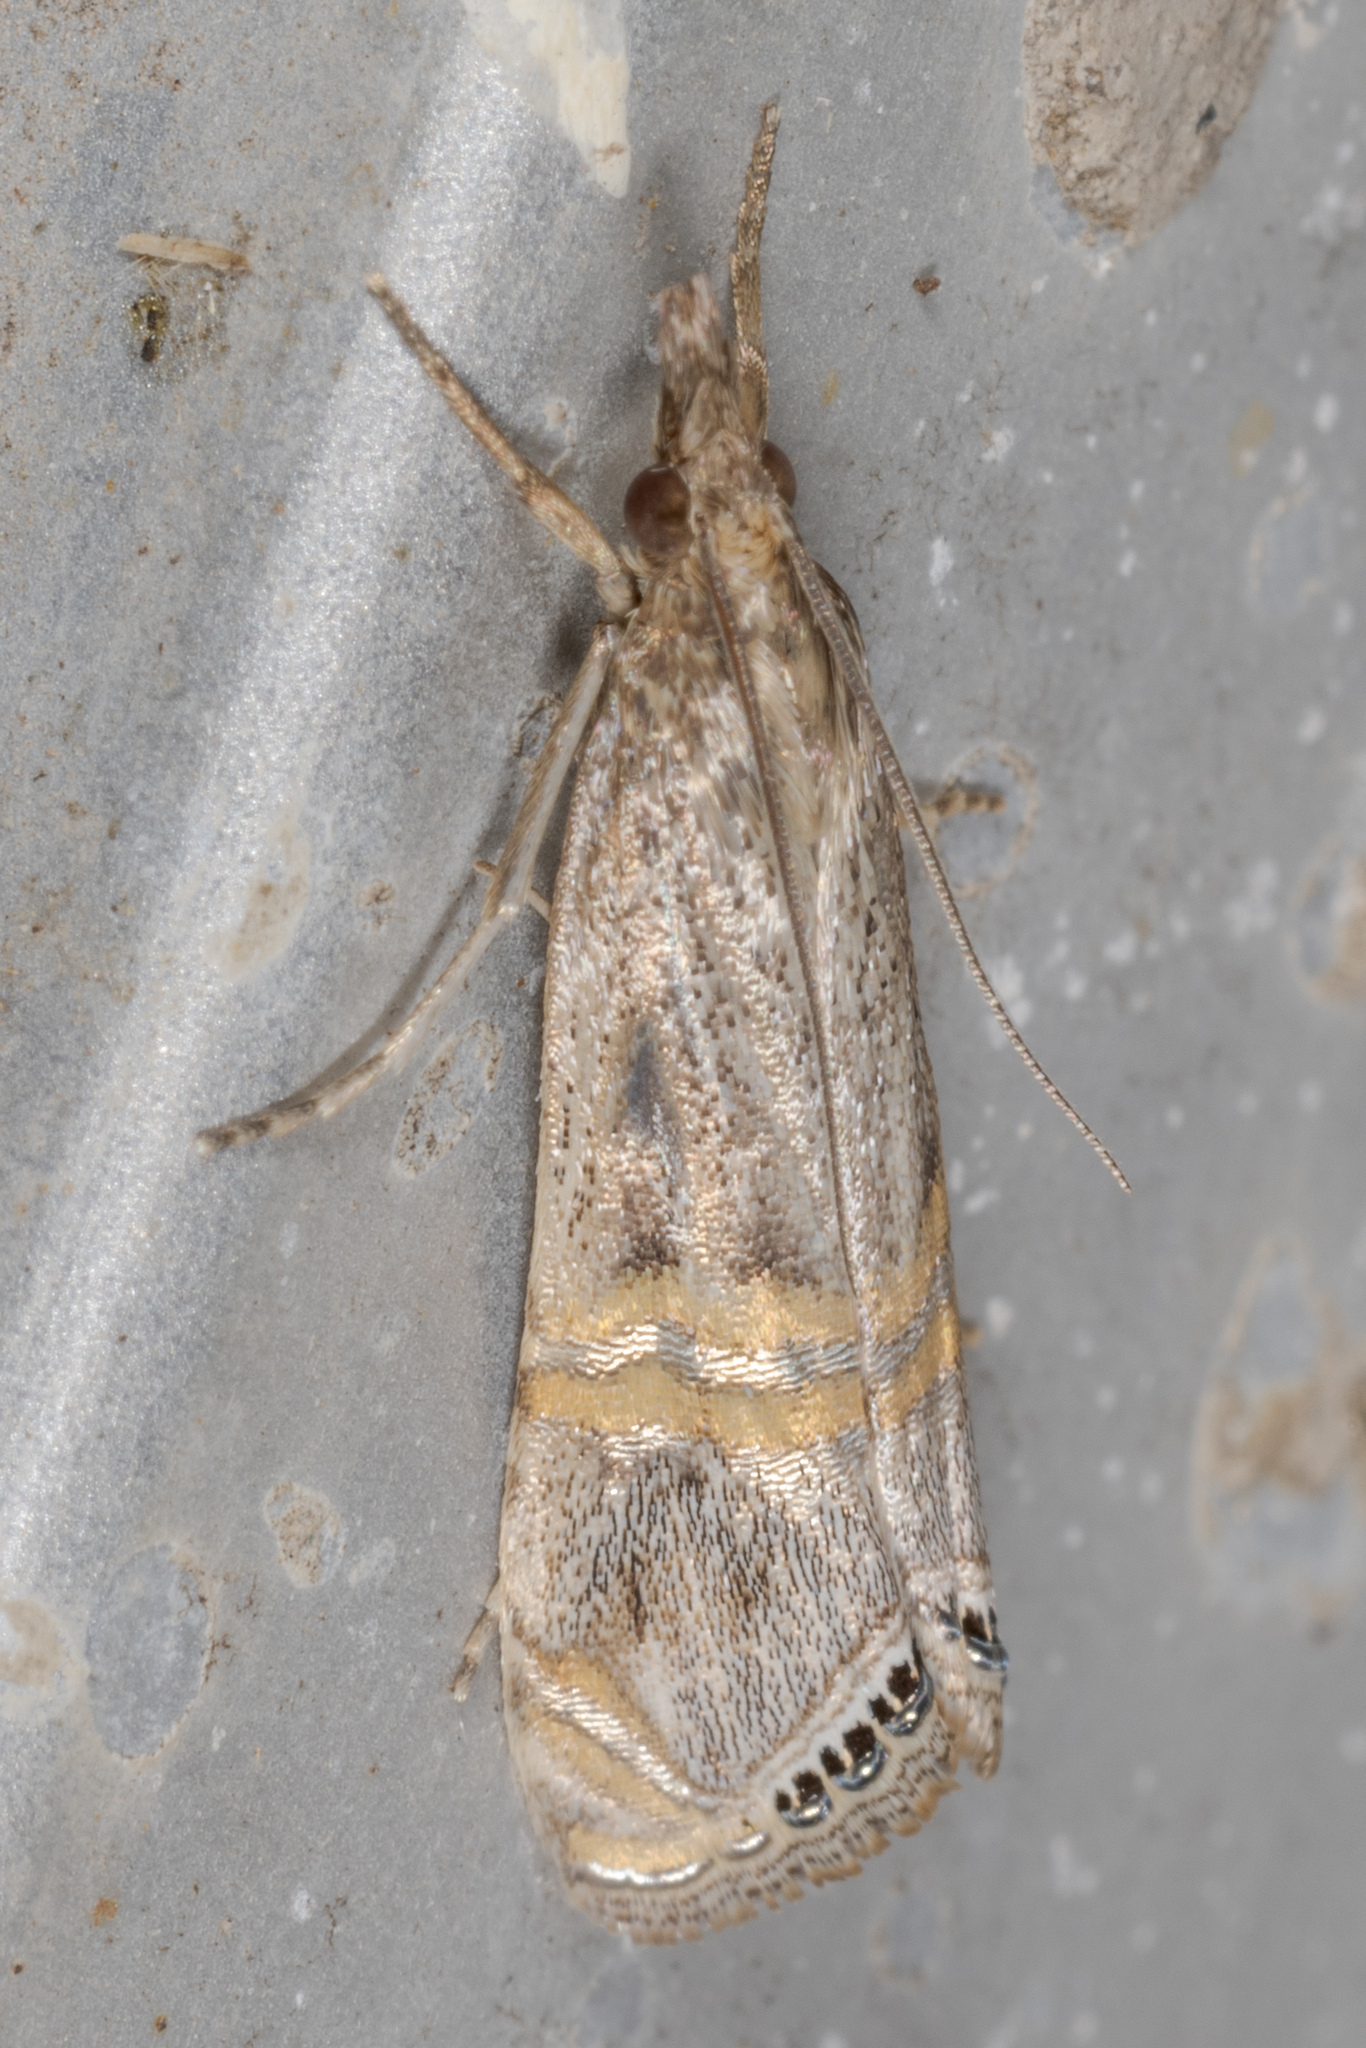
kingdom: Animalia
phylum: Arthropoda
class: Insecta
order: Lepidoptera
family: Crambidae
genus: Euchromius
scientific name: Euchromius ocellea
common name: Necklace veneer moth
